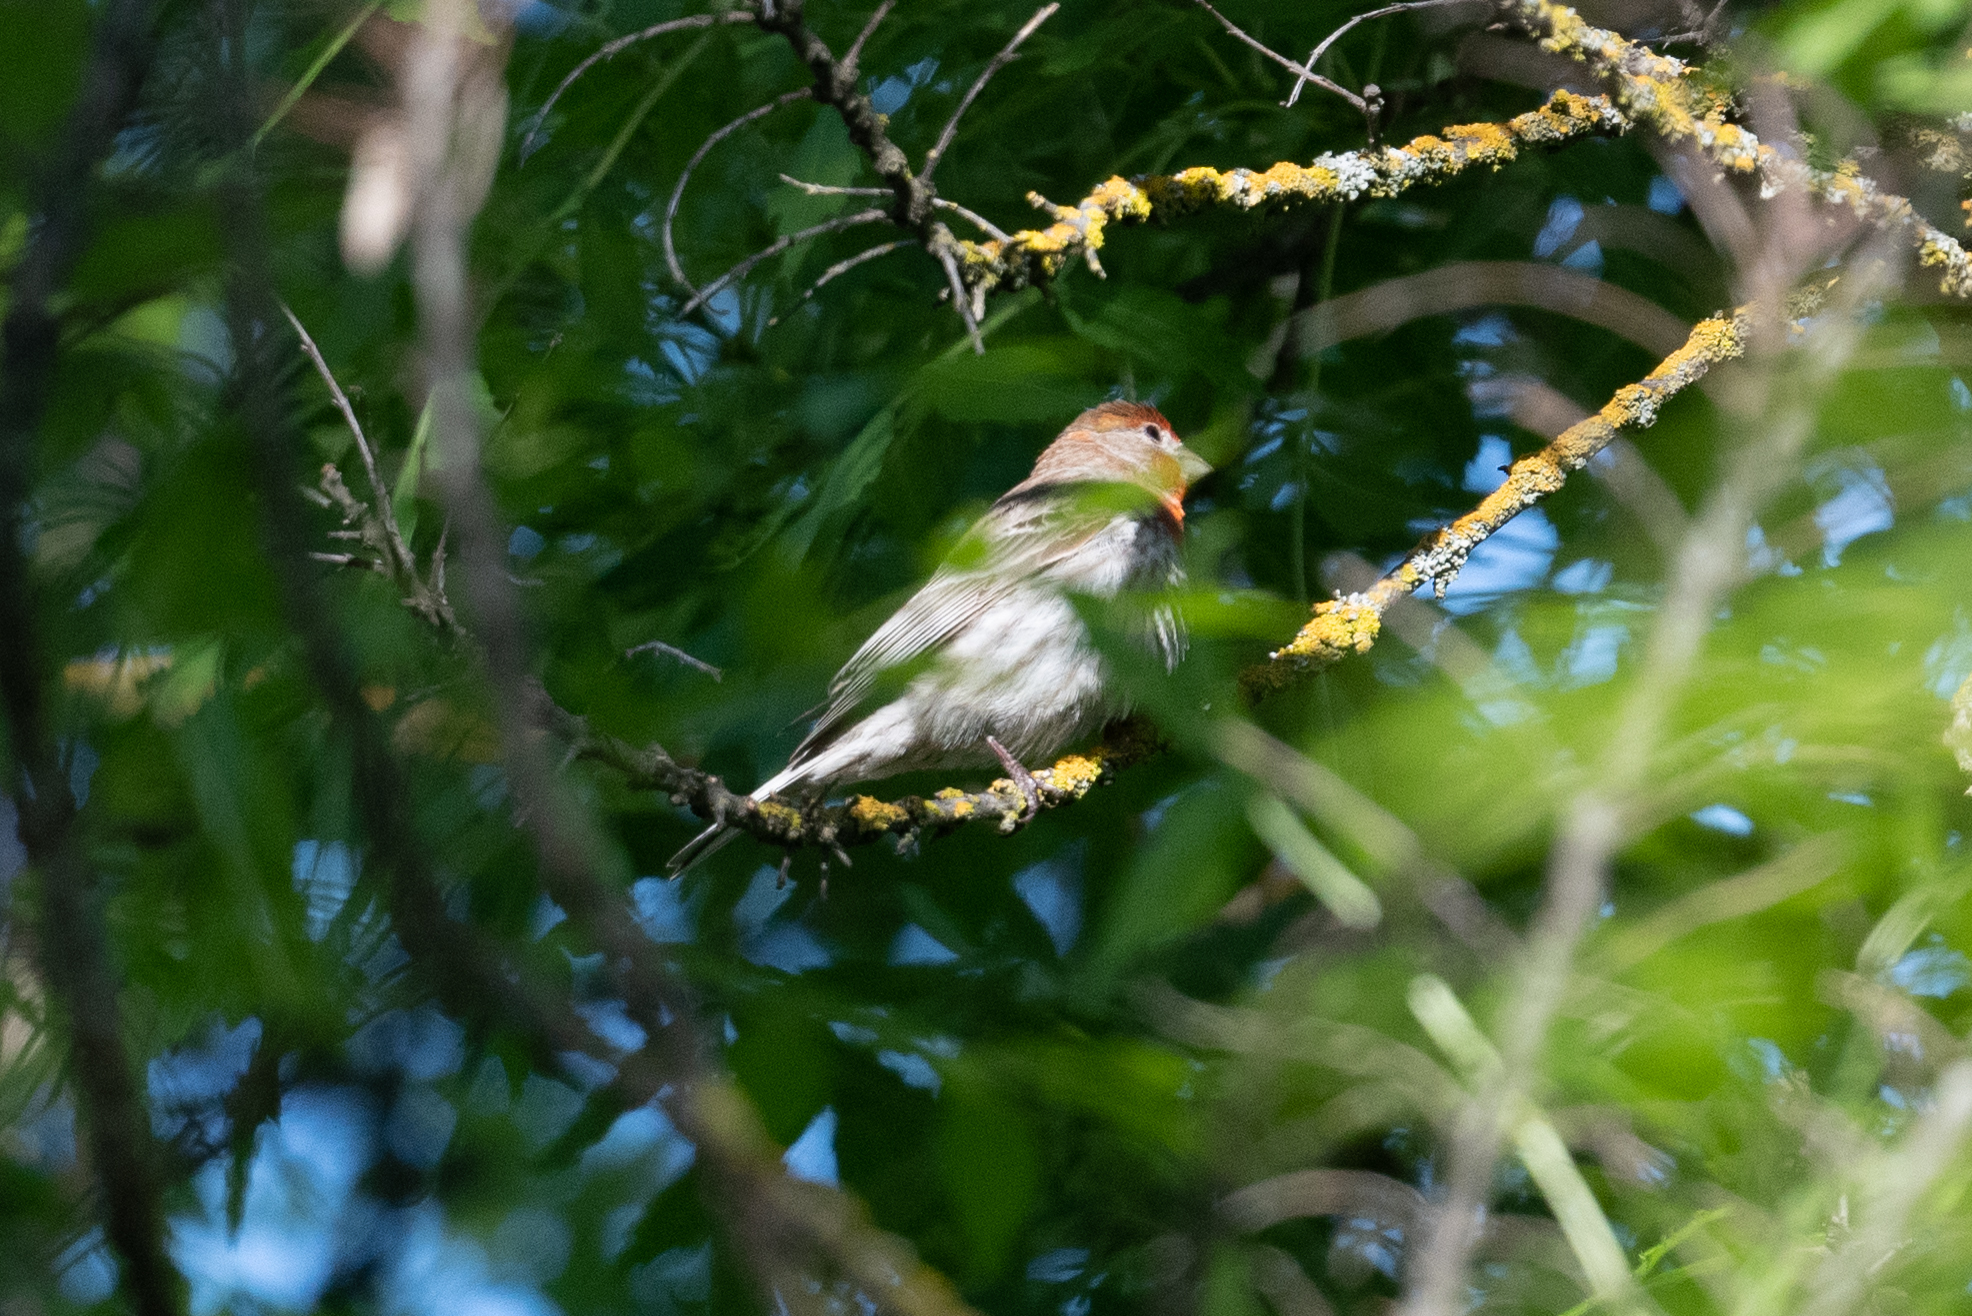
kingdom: Animalia
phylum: Chordata
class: Aves
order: Passeriformes
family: Fringillidae
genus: Haemorhous
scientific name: Haemorhous mexicanus
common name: House finch
